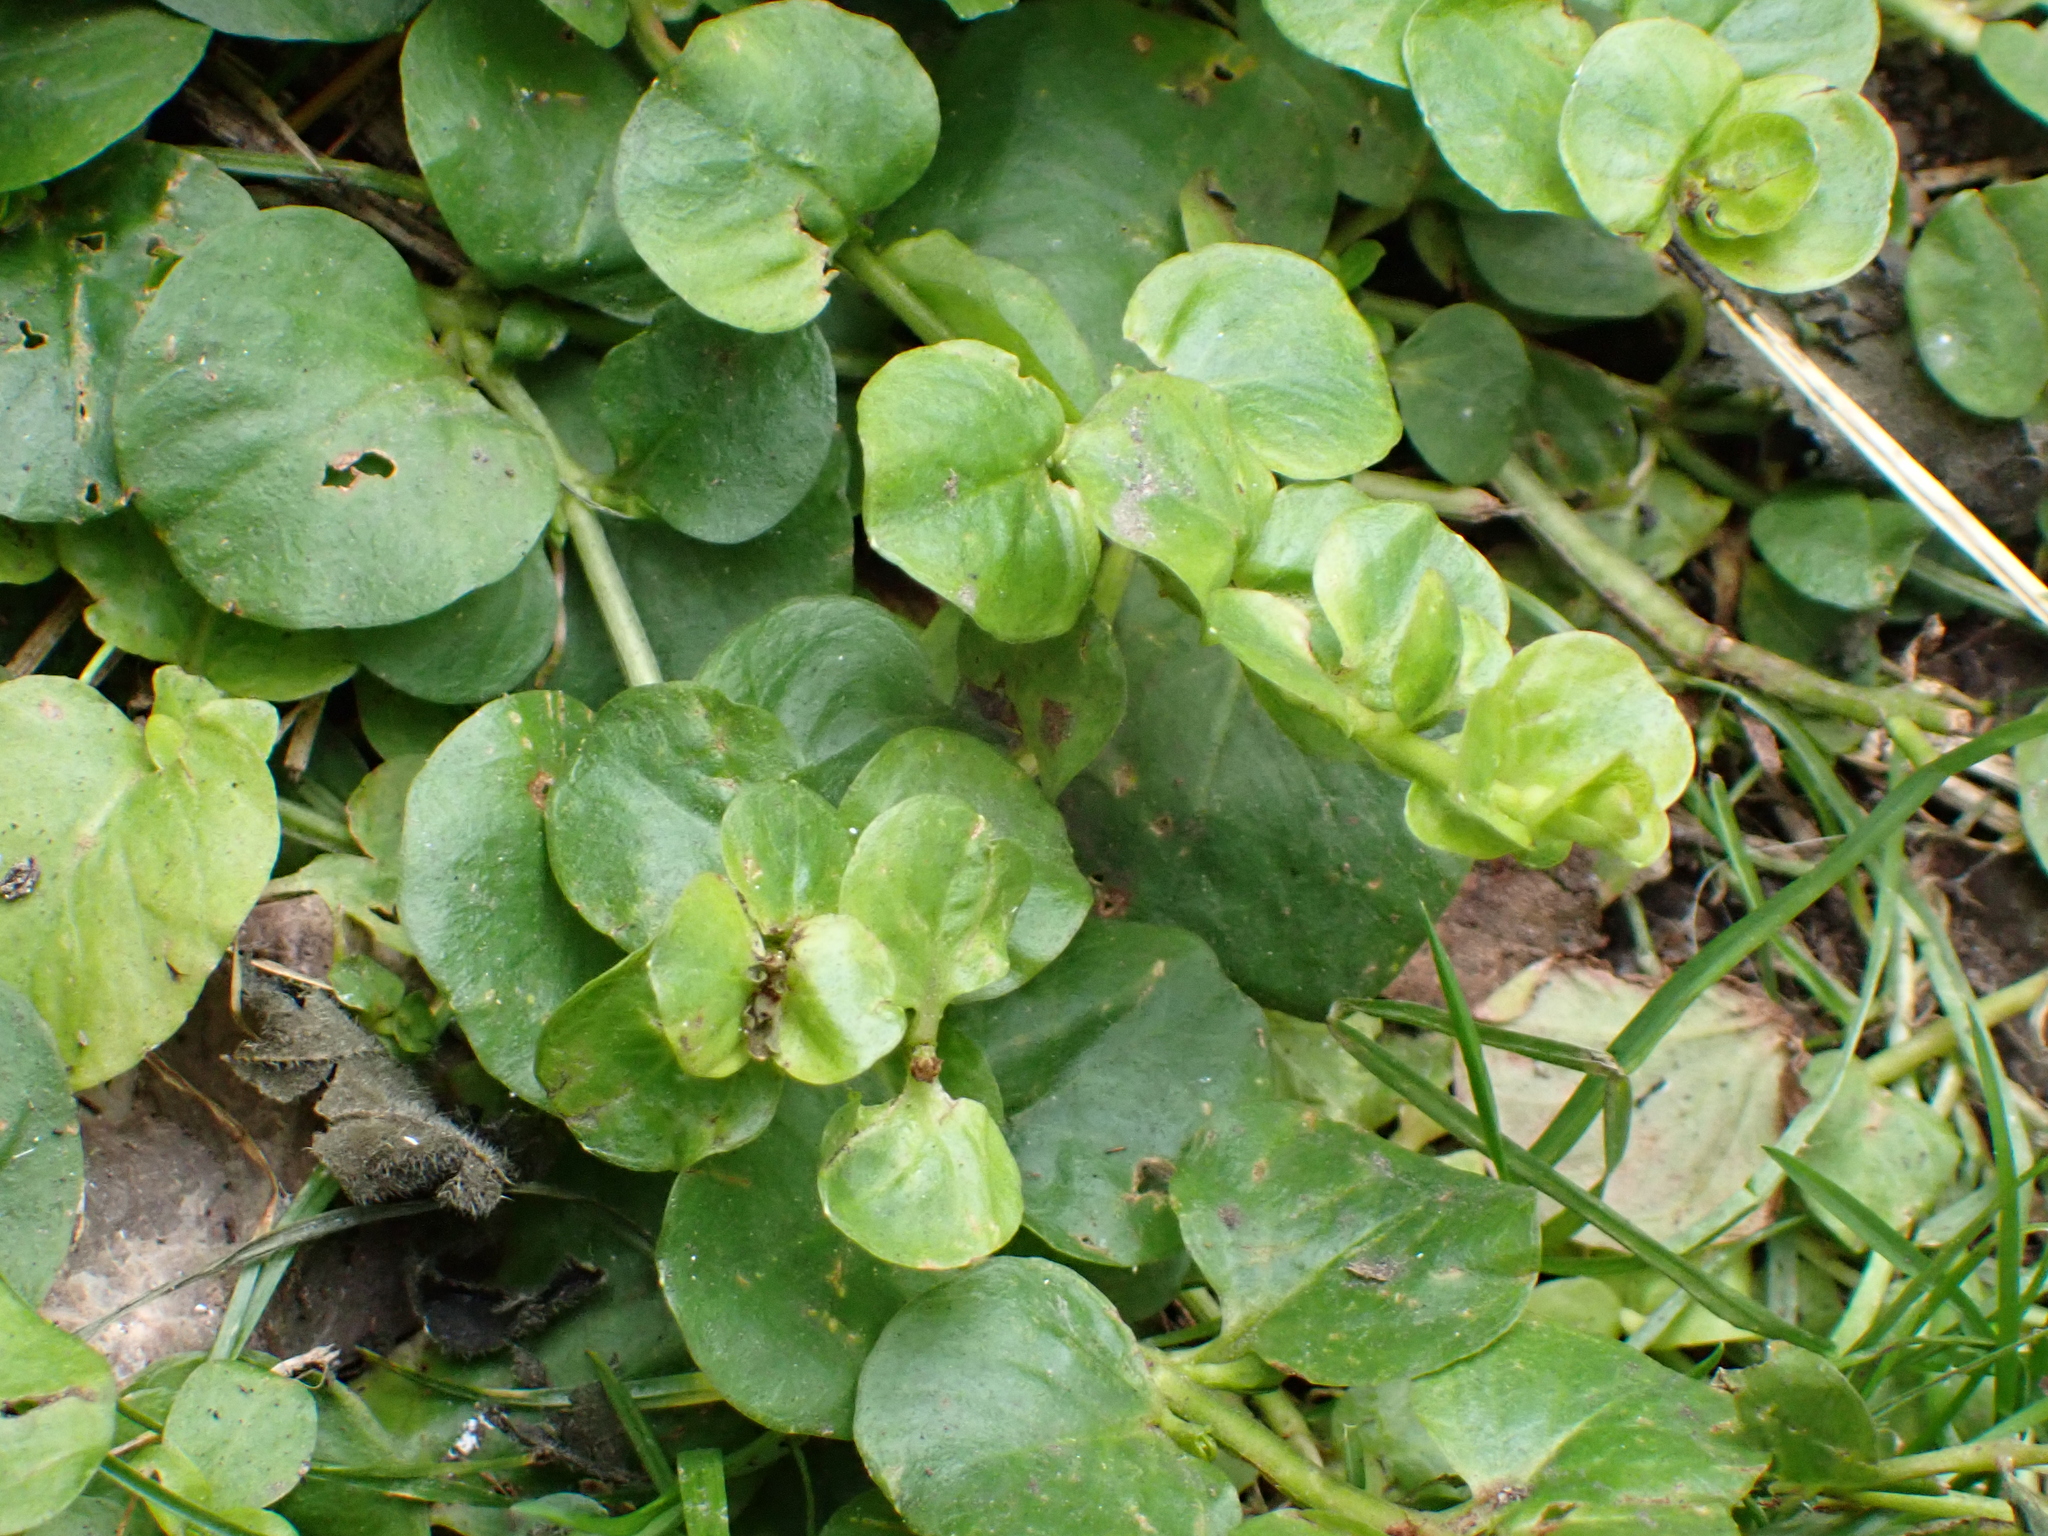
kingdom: Plantae
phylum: Tracheophyta
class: Magnoliopsida
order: Ericales
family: Primulaceae
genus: Lysimachia
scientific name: Lysimachia nummularia
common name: Moneywort
